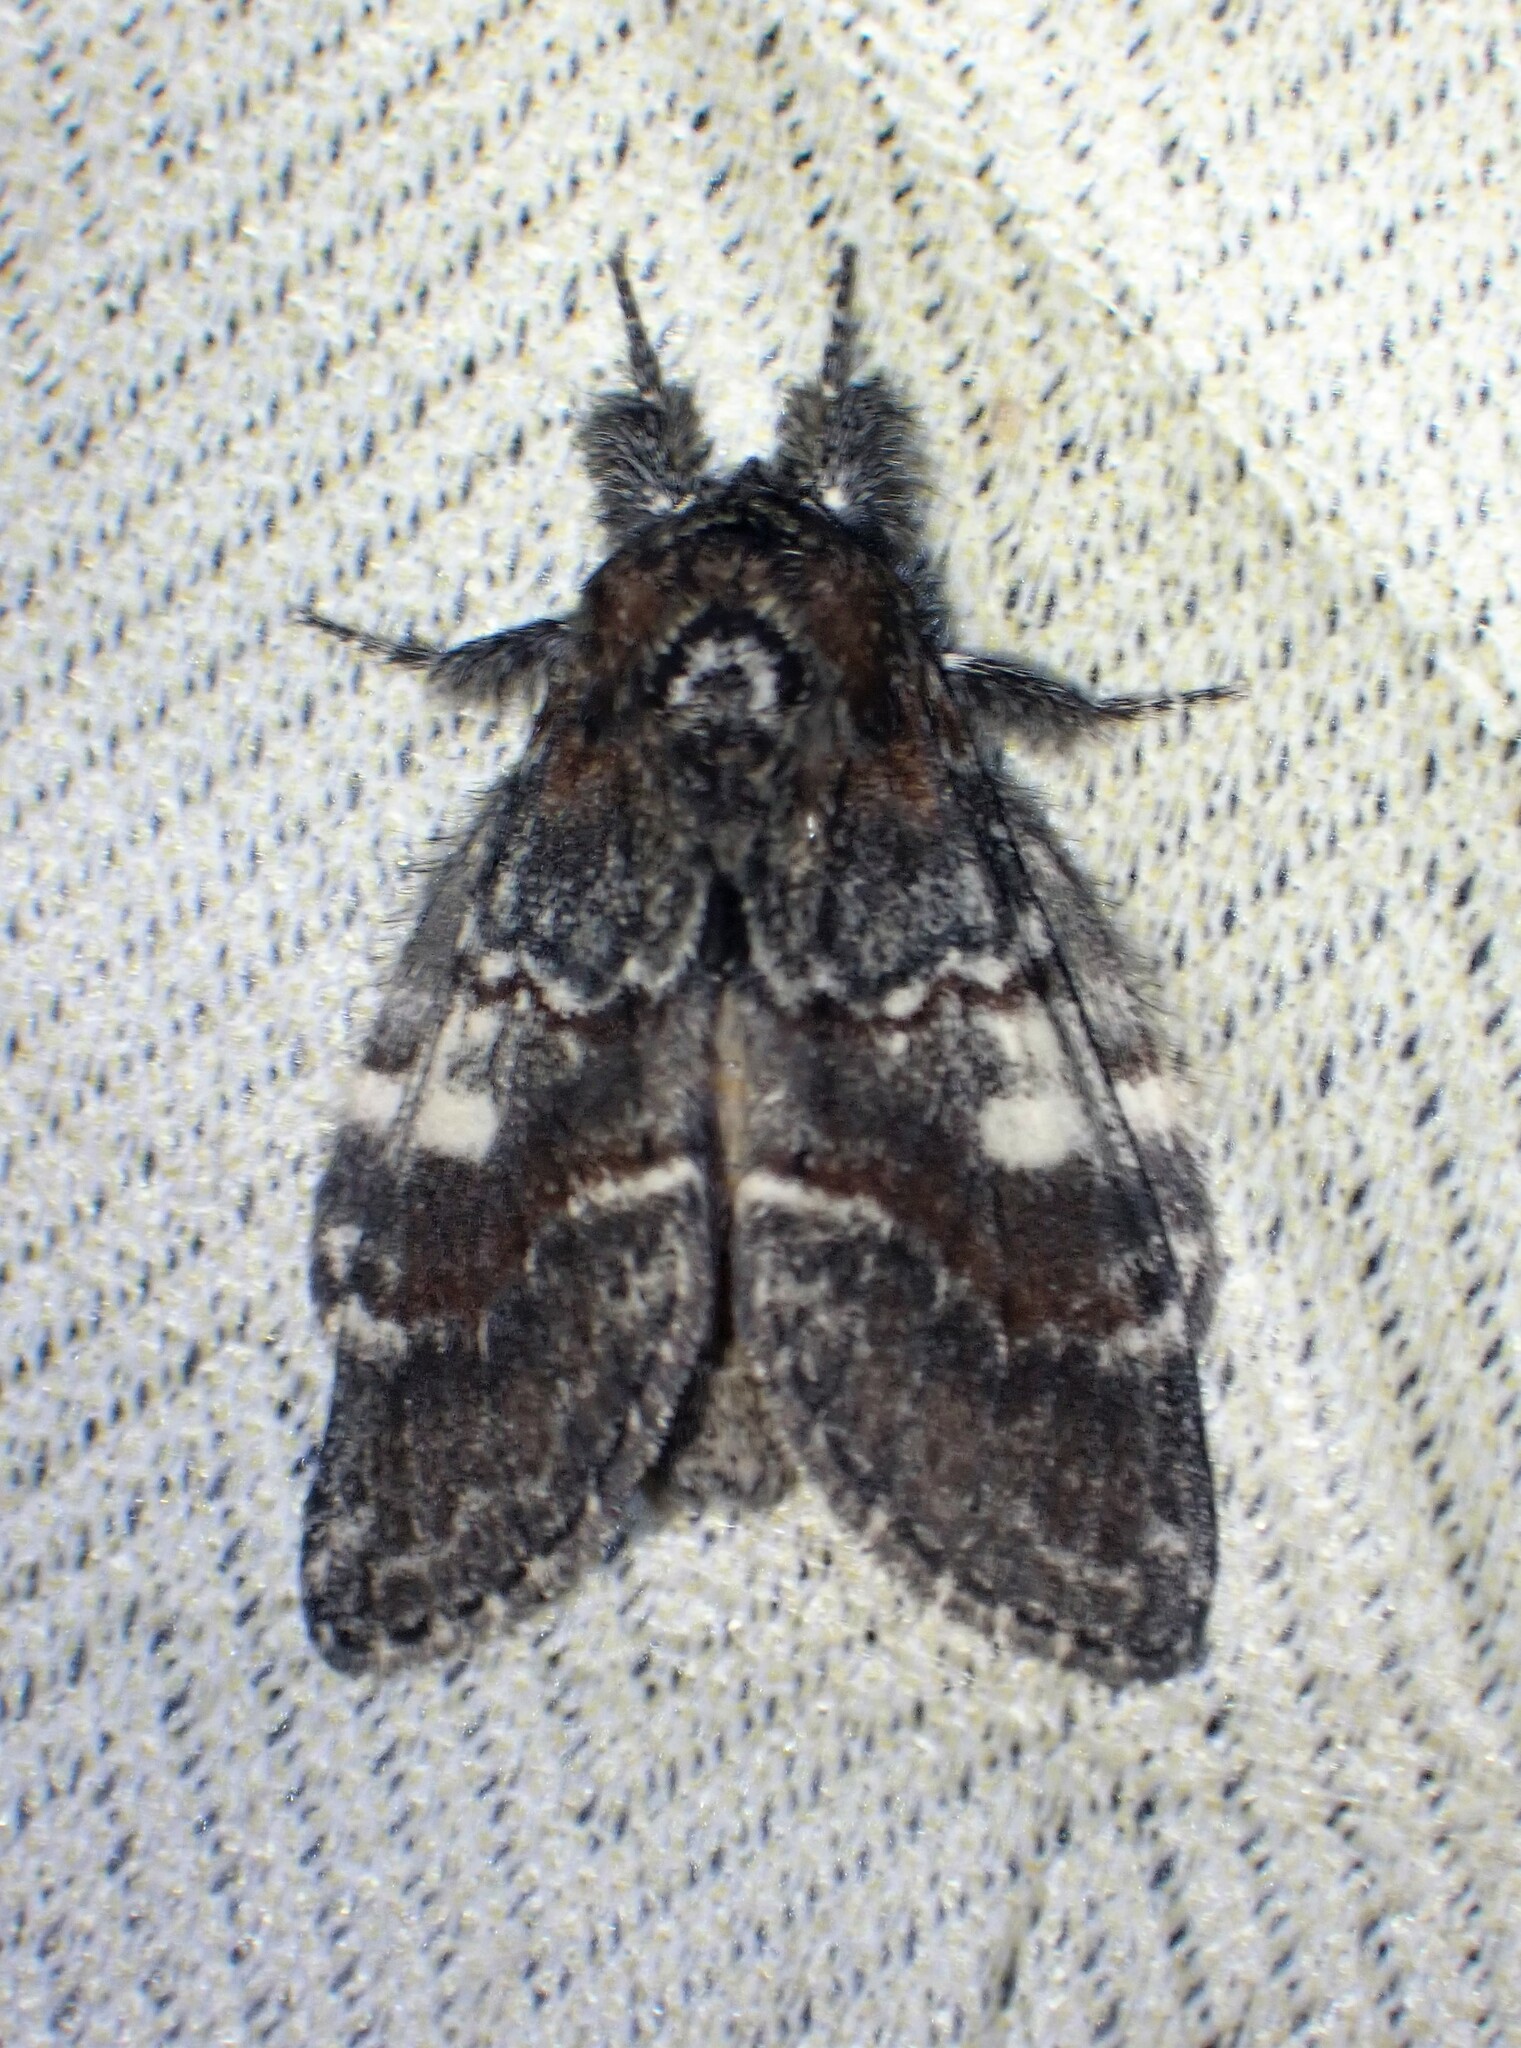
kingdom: Animalia
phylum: Arthropoda
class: Insecta
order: Lepidoptera
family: Notodontidae
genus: Peridea
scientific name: Peridea ferruginea
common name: Chocolate prominent
